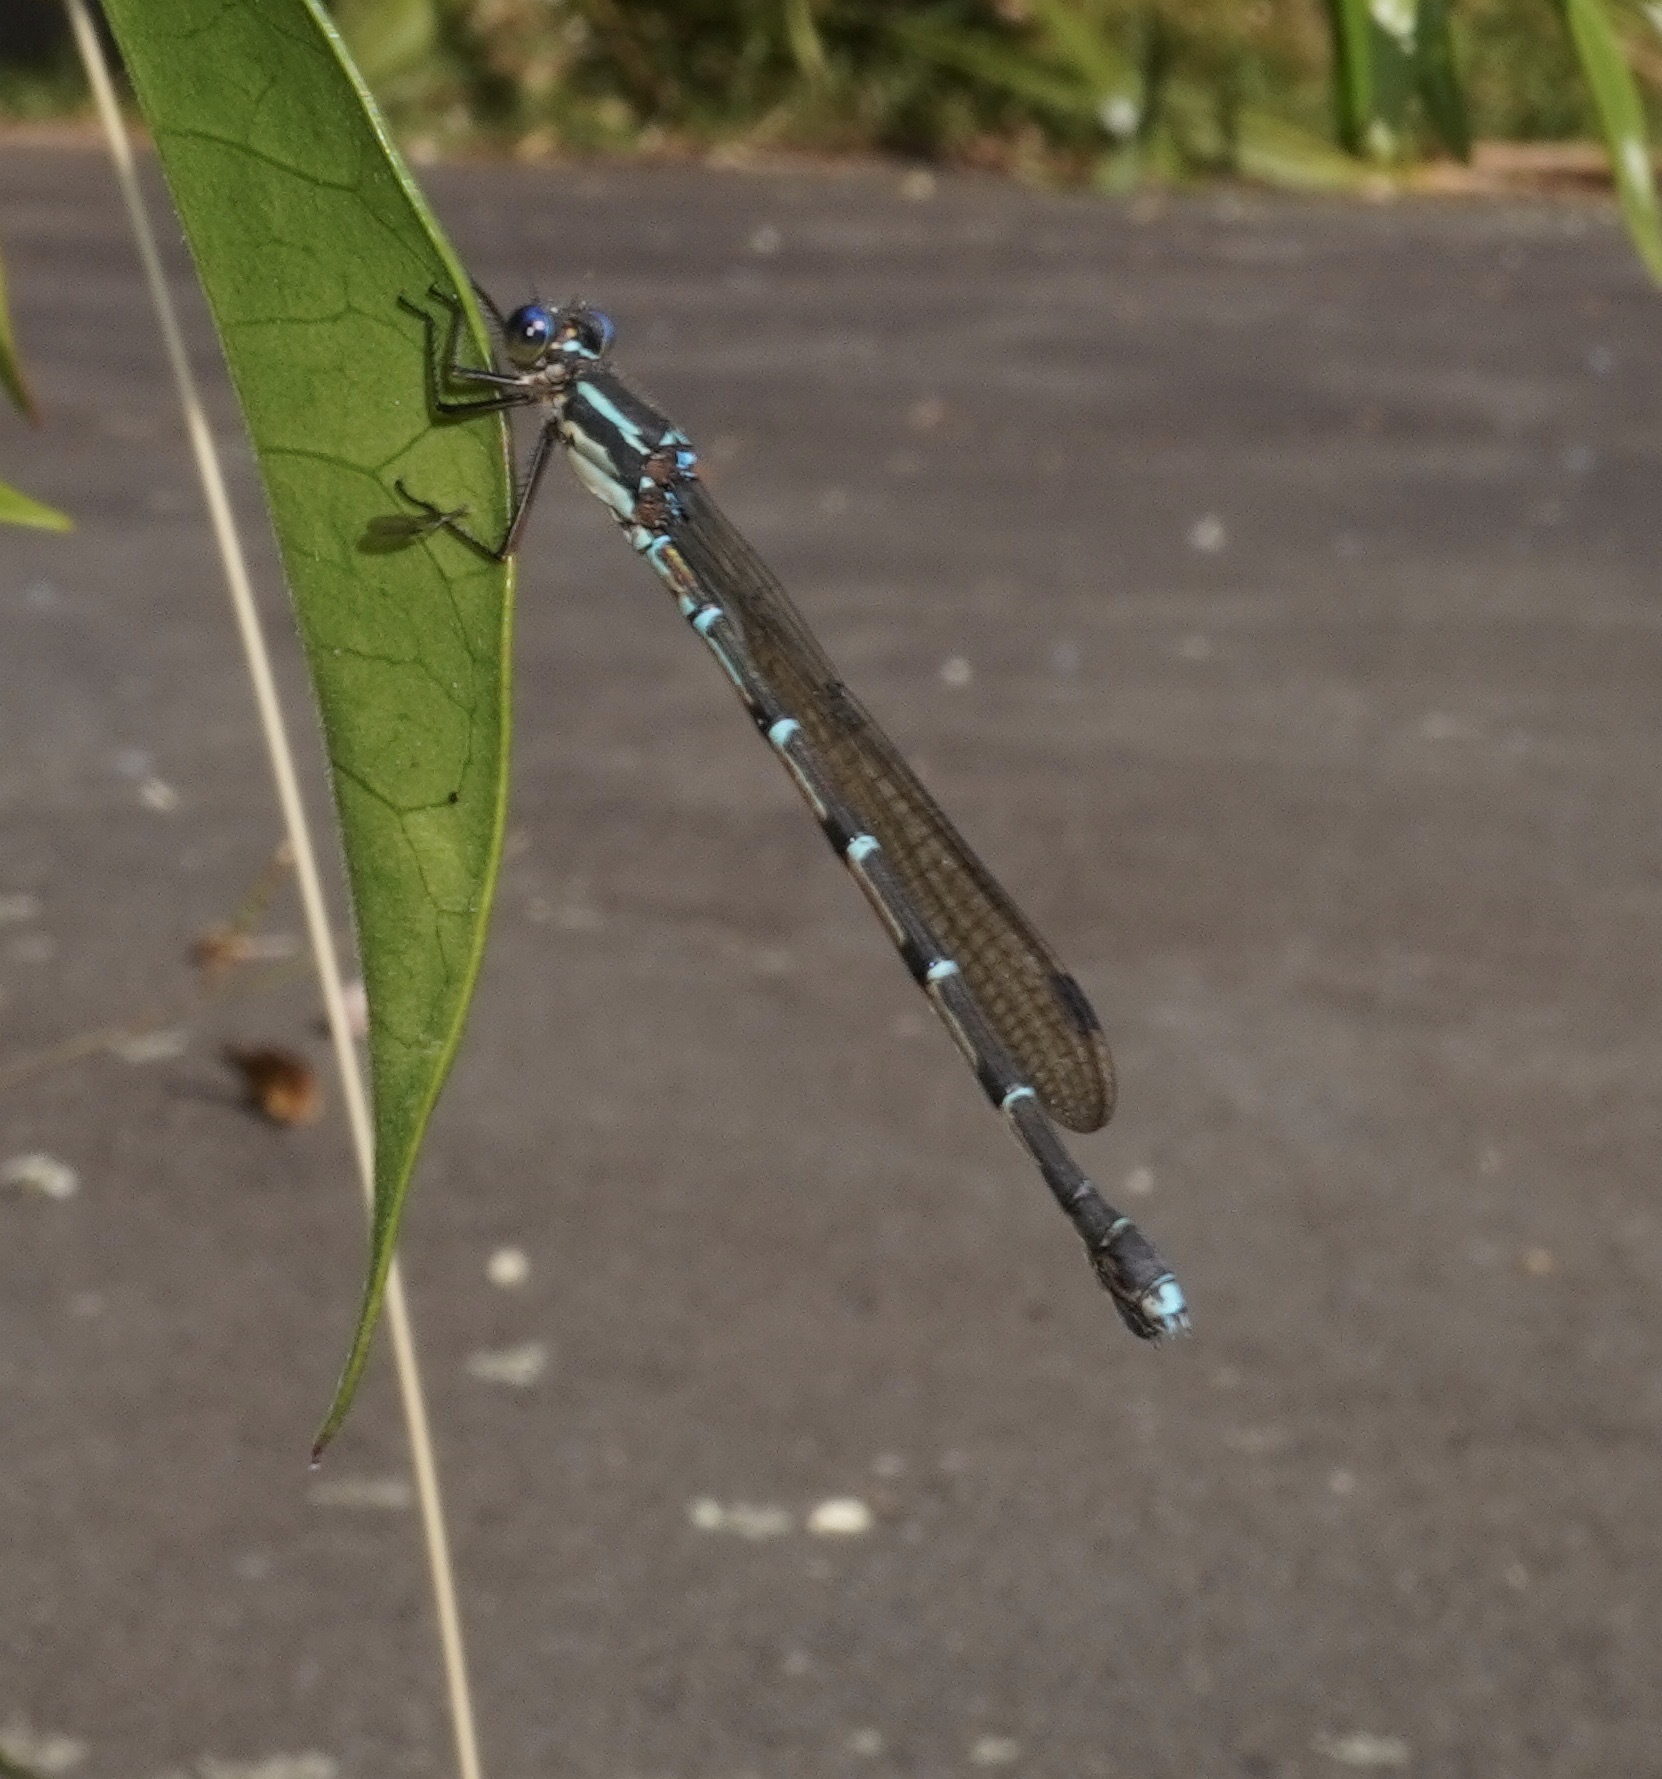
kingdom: Animalia
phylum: Arthropoda
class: Insecta
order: Odonata
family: Lestidae
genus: Austrolestes
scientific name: Austrolestes colensonis
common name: Blue damselfly
